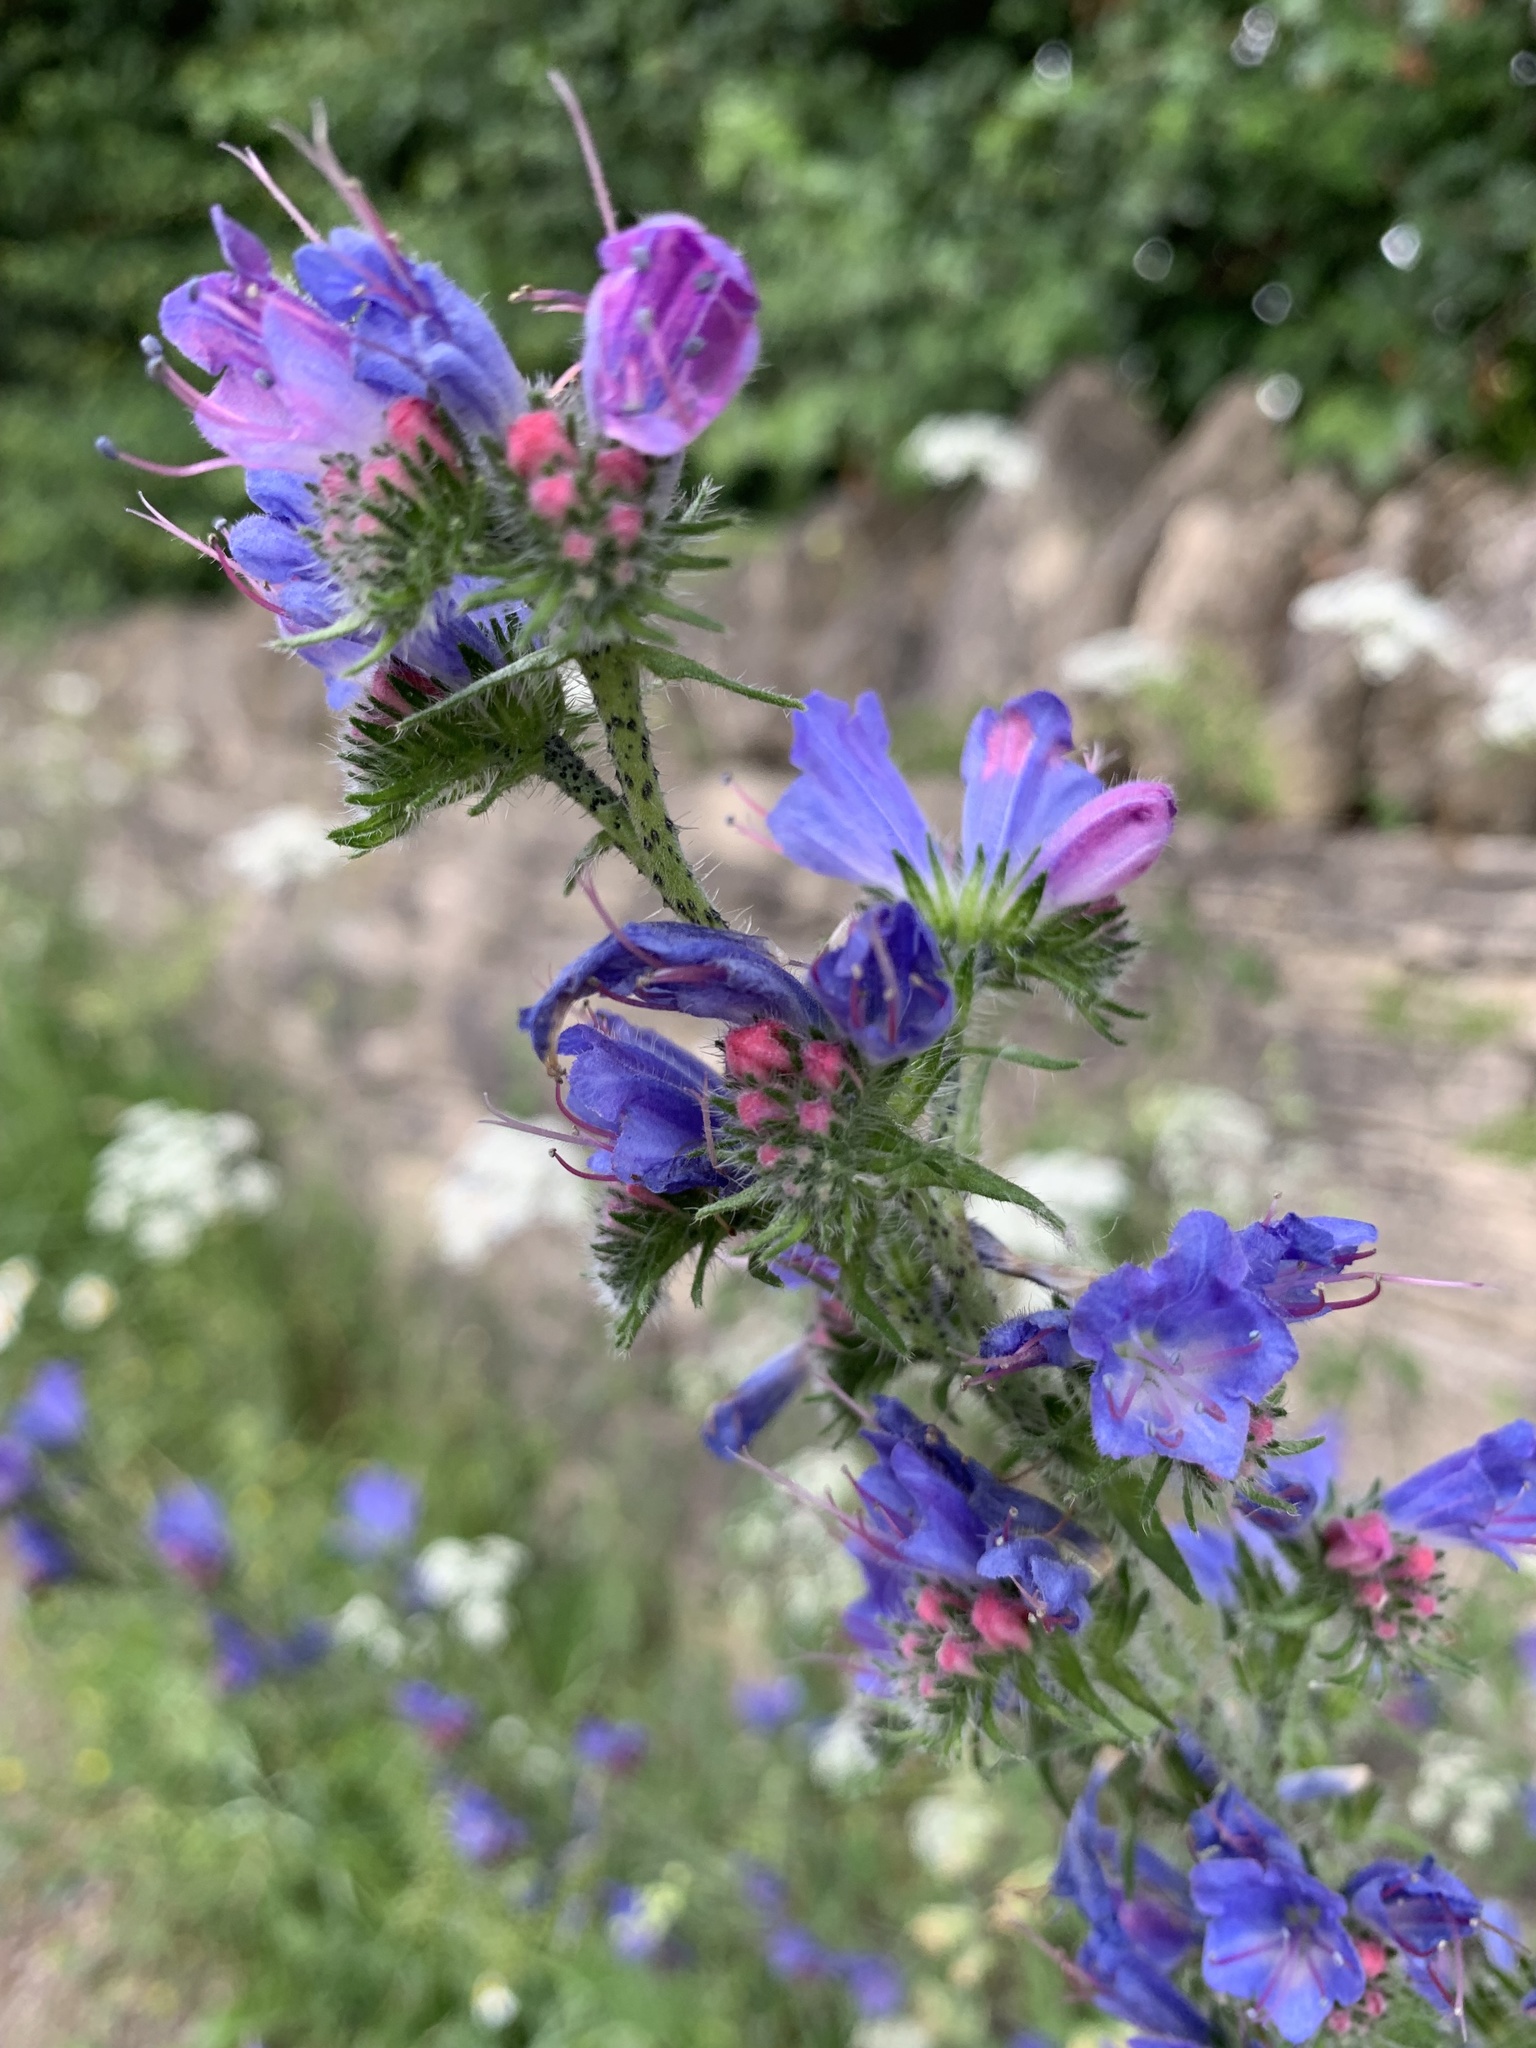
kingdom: Plantae
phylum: Tracheophyta
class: Magnoliopsida
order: Boraginales
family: Boraginaceae
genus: Echium
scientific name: Echium vulgare
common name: Common viper's bugloss
